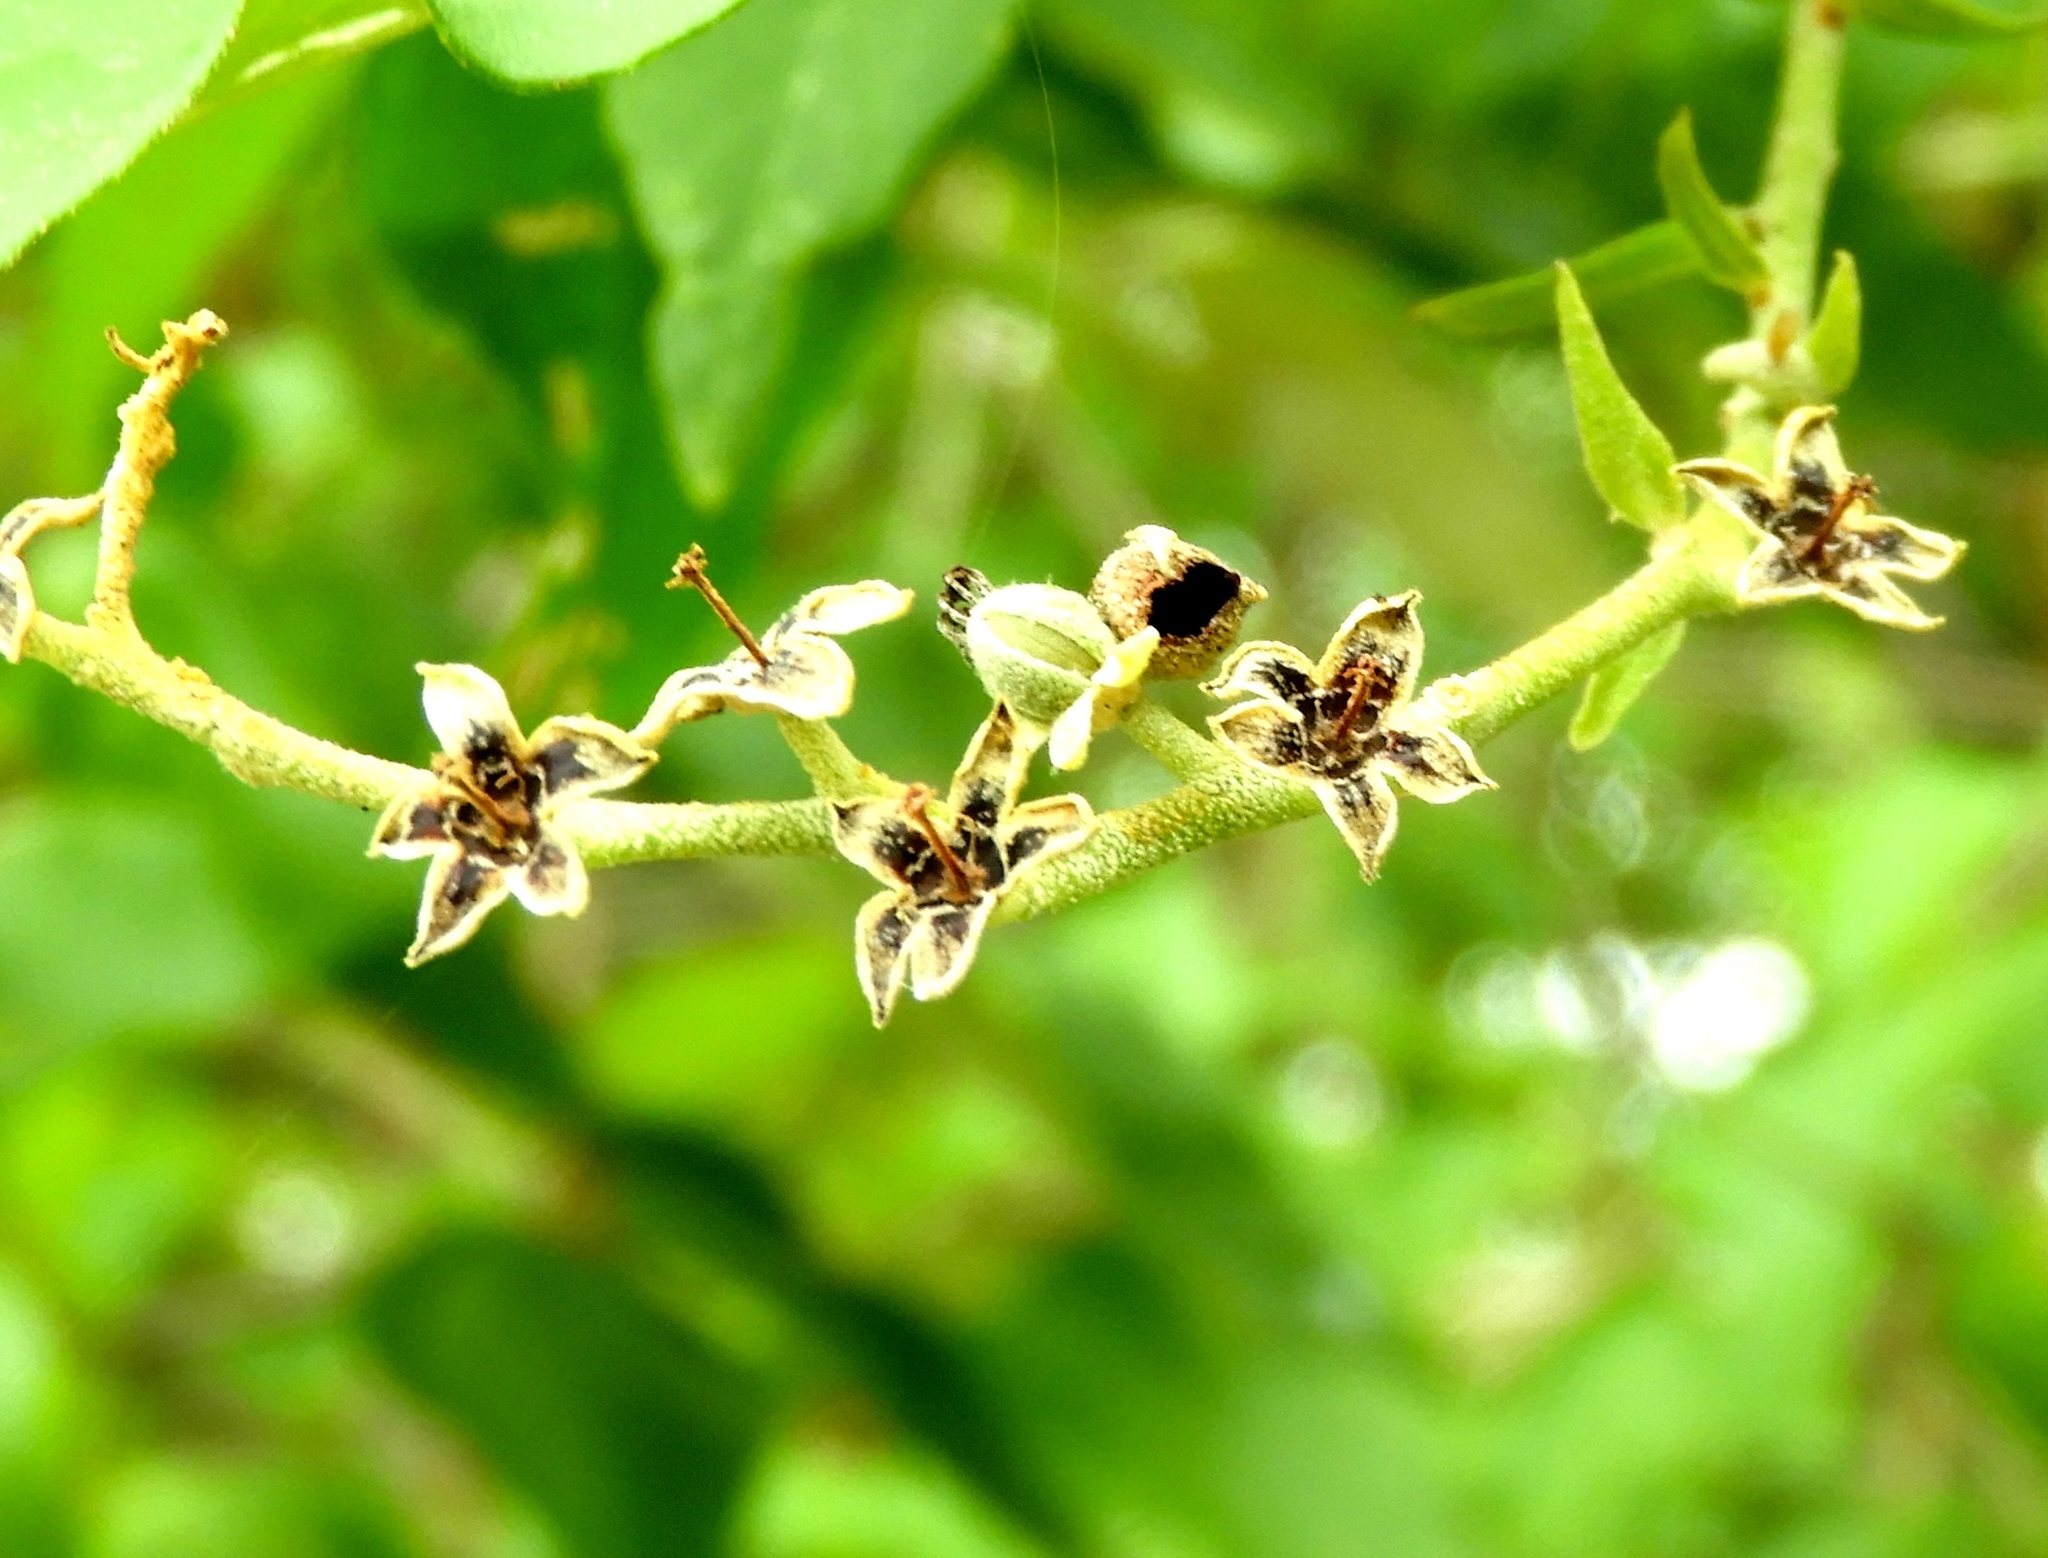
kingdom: Plantae
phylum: Tracheophyta
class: Magnoliopsida
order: Malpighiales
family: Euphorbiaceae
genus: Croton
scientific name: Croton culiacanensis
